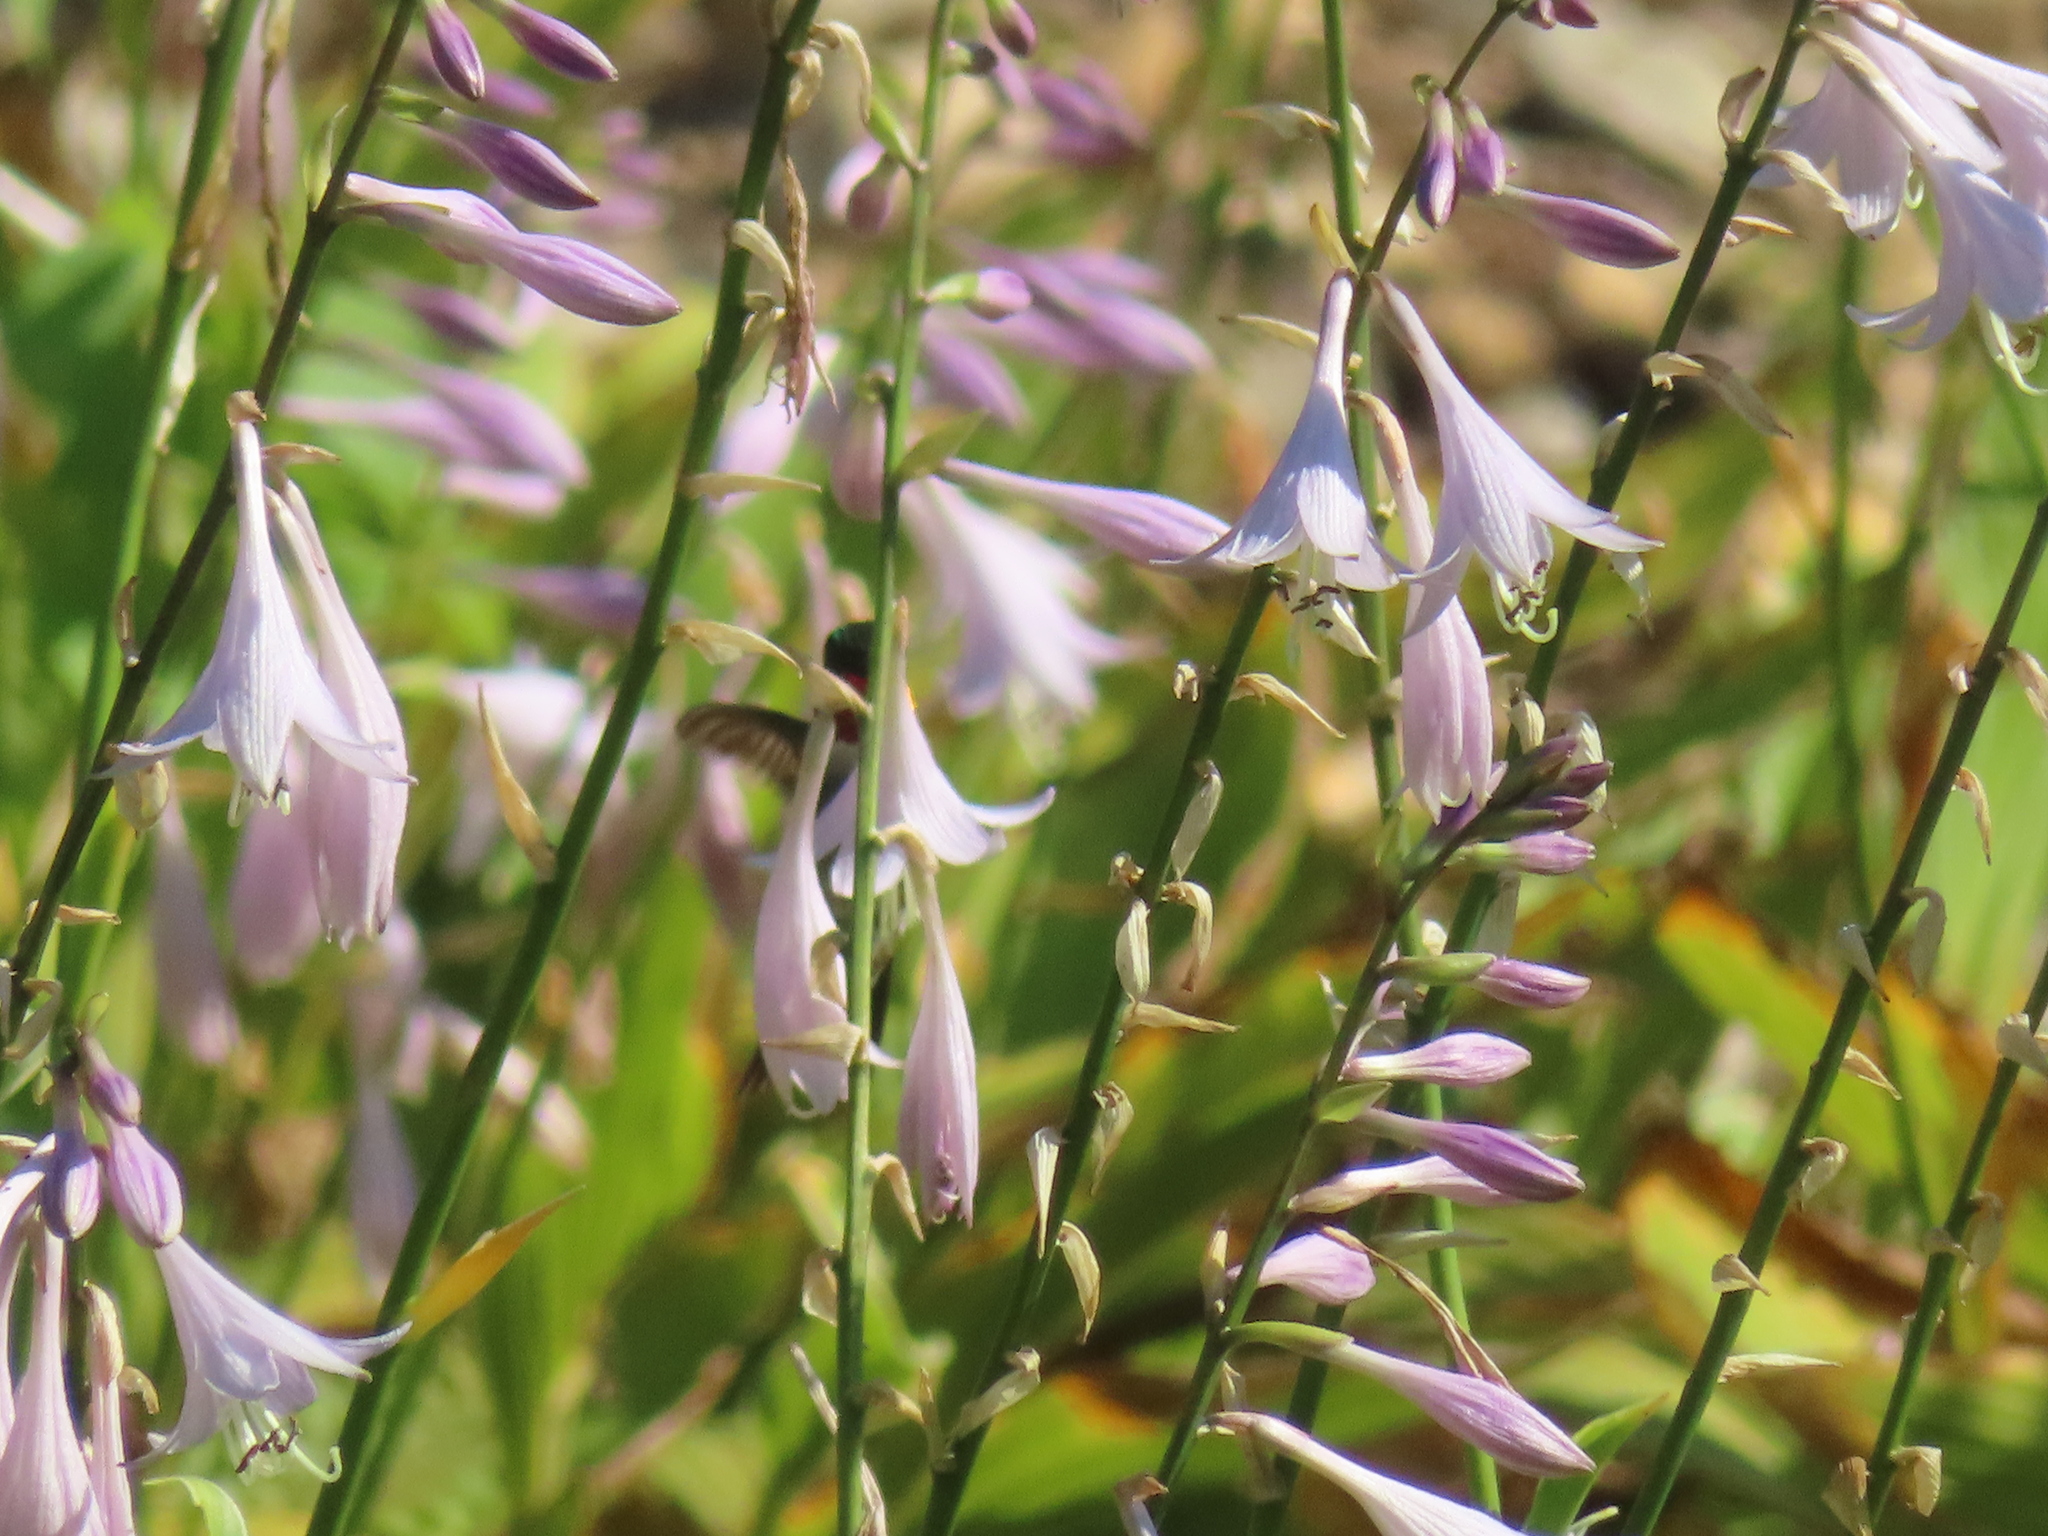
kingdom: Animalia
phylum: Chordata
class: Aves
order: Apodiformes
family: Trochilidae
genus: Archilochus
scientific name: Archilochus colubris
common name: Ruby-throated hummingbird
